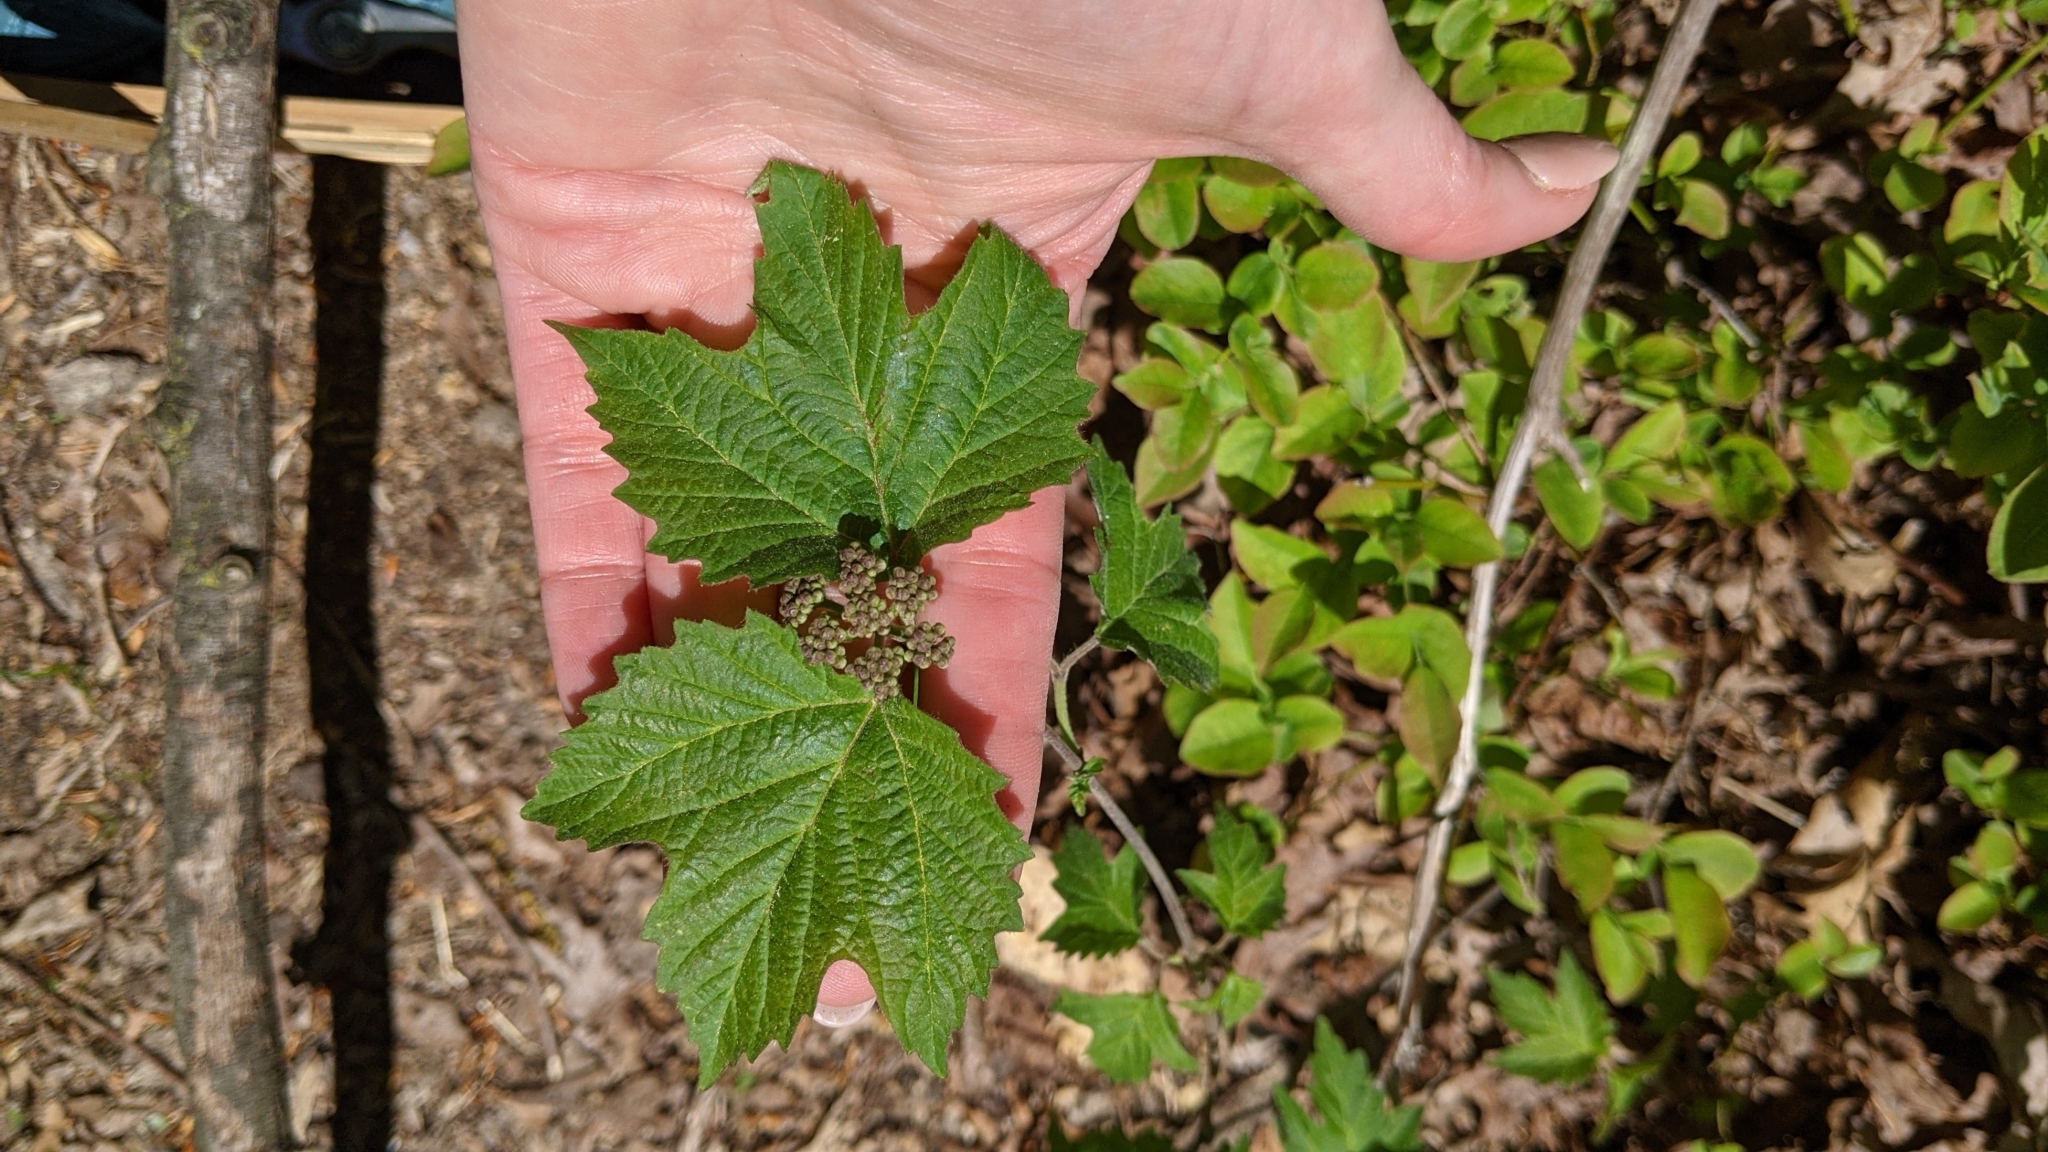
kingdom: Plantae
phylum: Tracheophyta
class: Magnoliopsida
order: Dipsacales
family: Viburnaceae
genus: Viburnum
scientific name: Viburnum acerifolium
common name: Dockmackie
